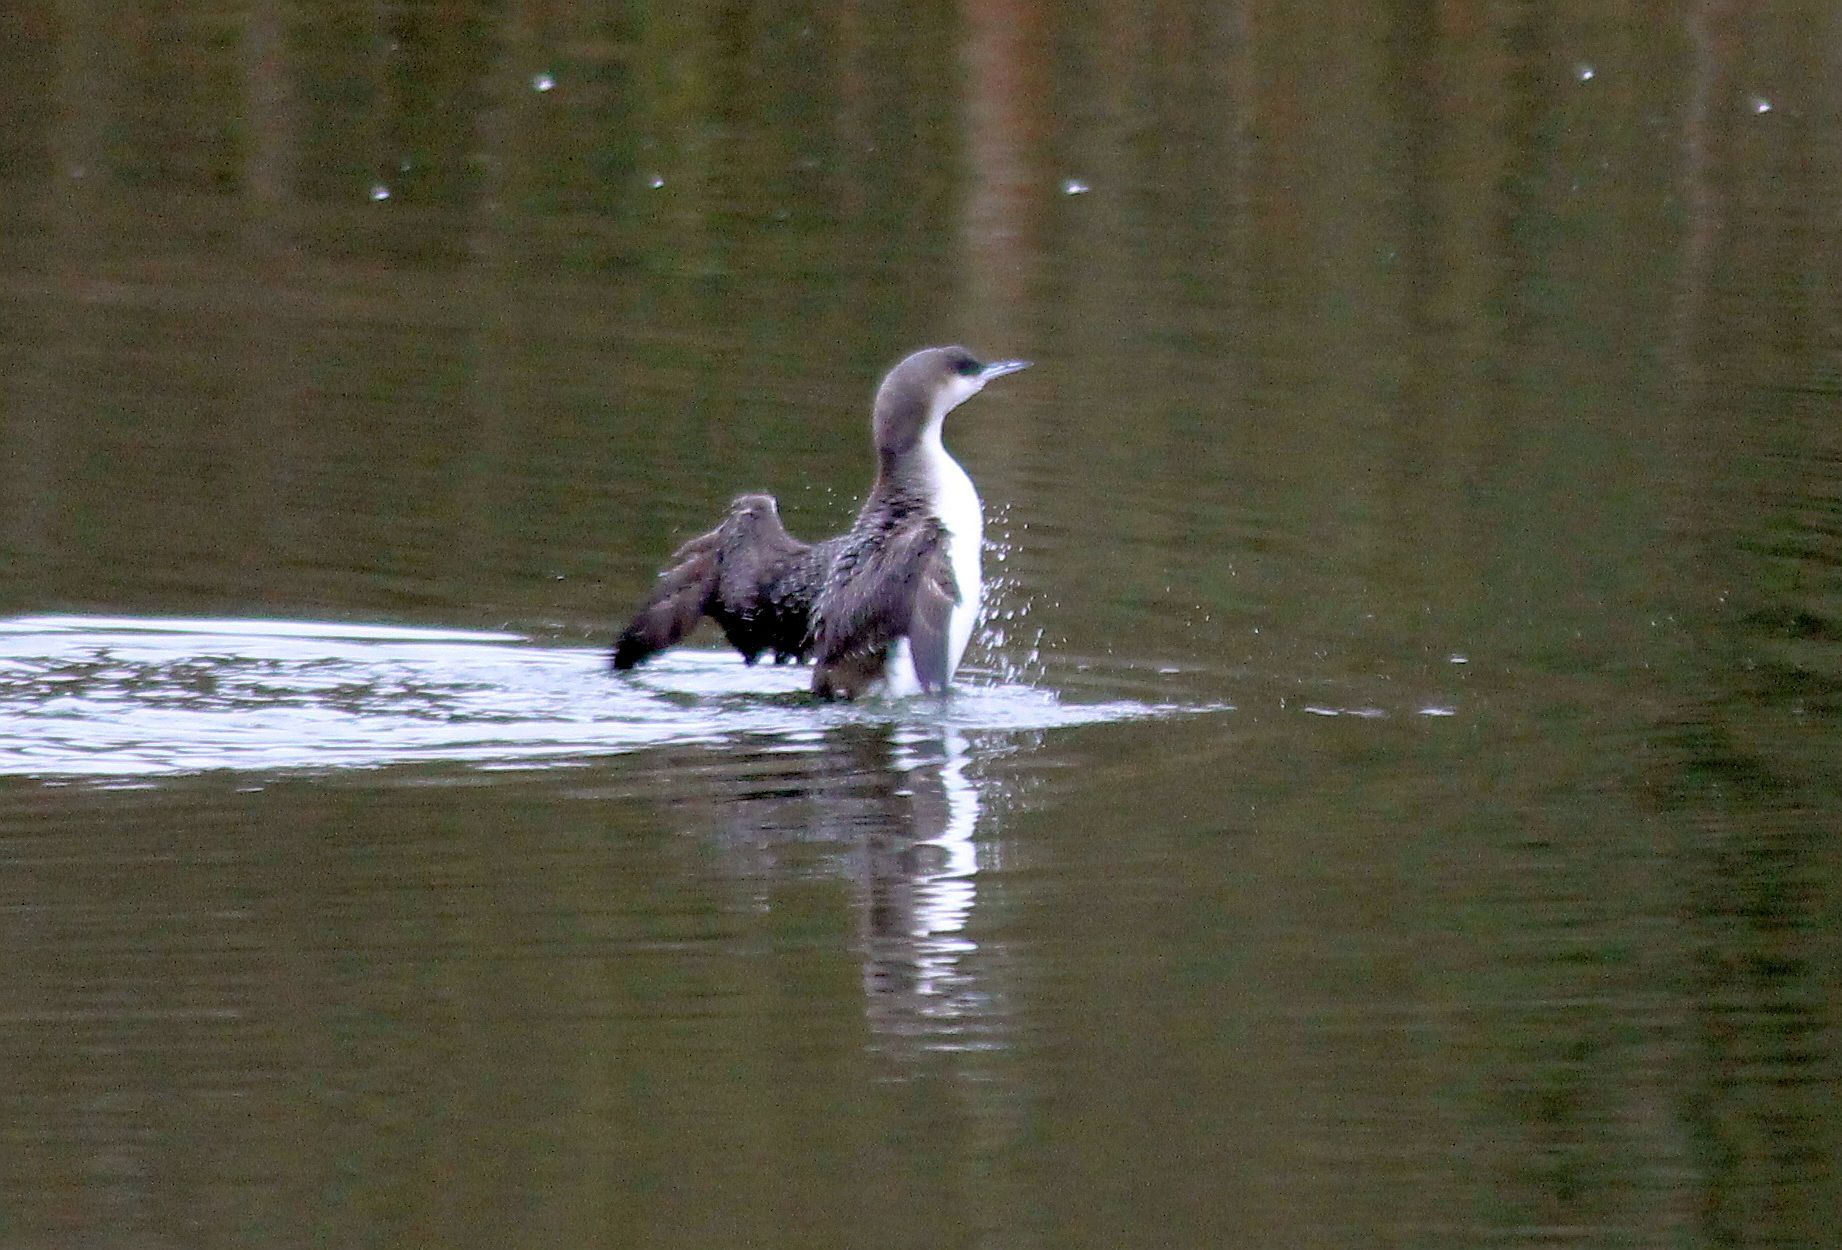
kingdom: Animalia
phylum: Chordata
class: Aves
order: Gaviiformes
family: Gaviidae
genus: Gavia
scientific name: Gavia arctica
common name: Black-throated loon
